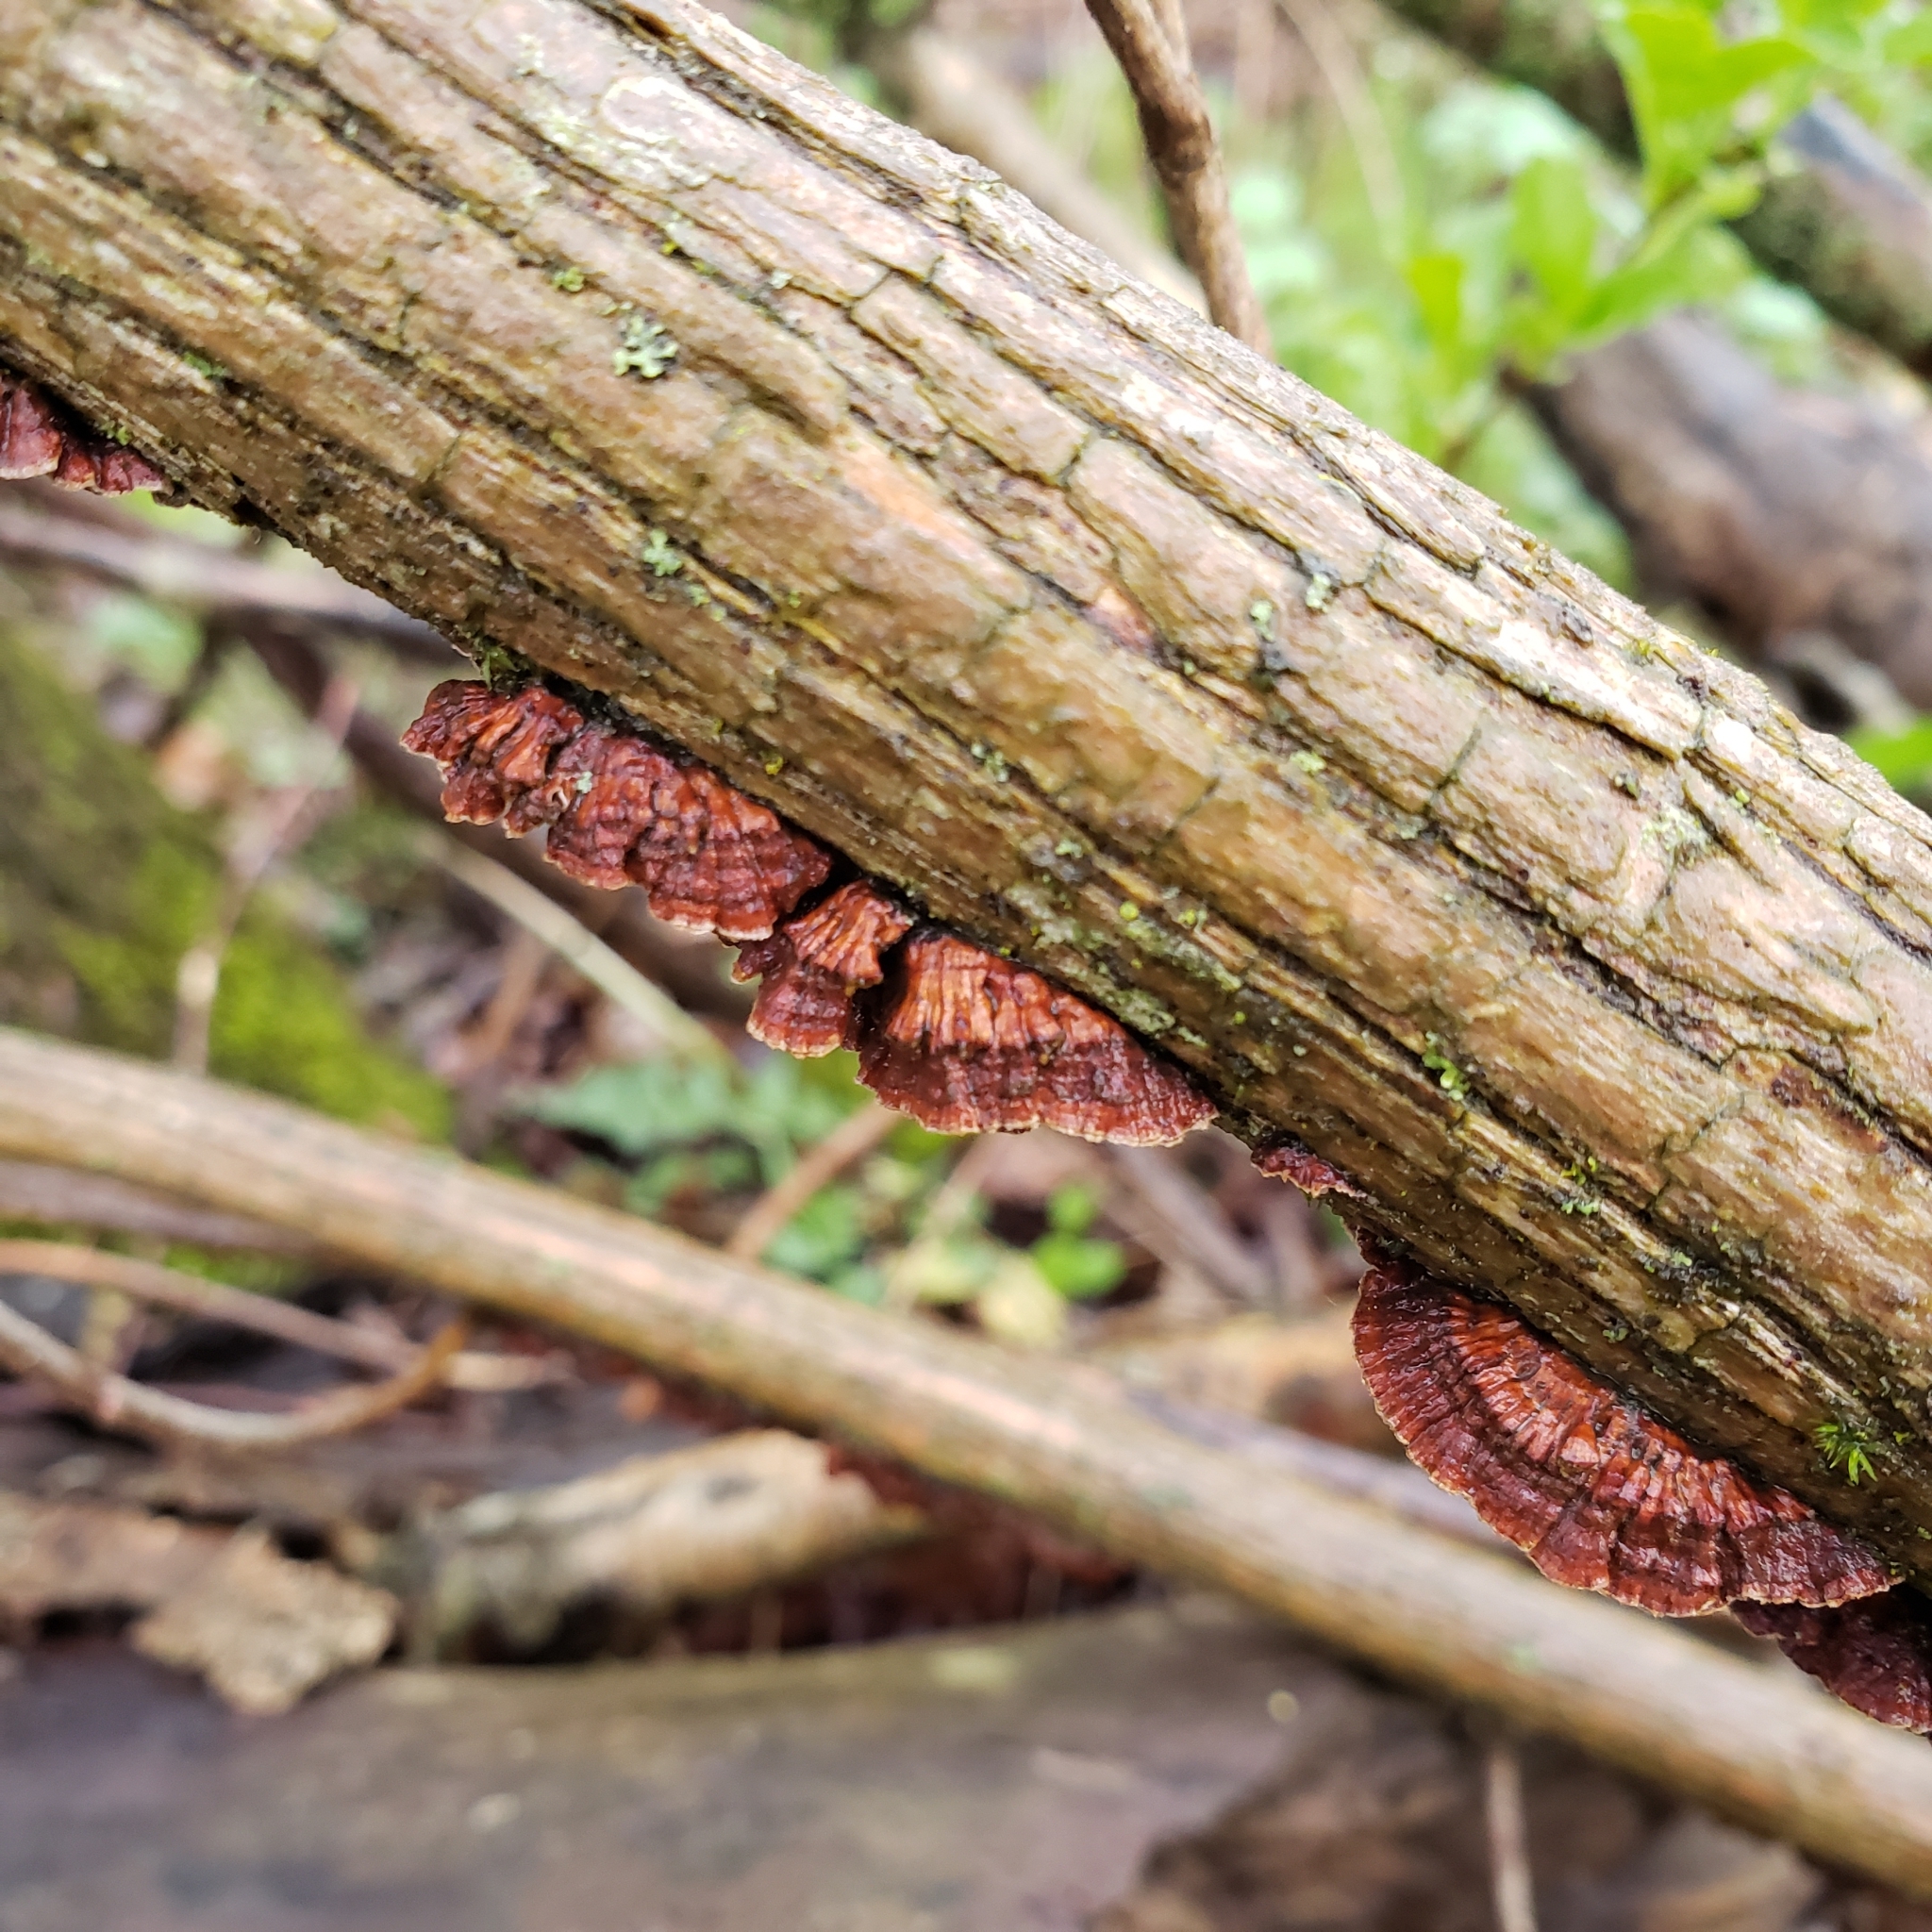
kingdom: Fungi
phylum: Basidiomycota
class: Agaricomycetes
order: Hymenochaetales
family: Hymenochaetaceae
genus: Hydnoporia
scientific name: Hydnoporia tabacina
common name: Willow glue
